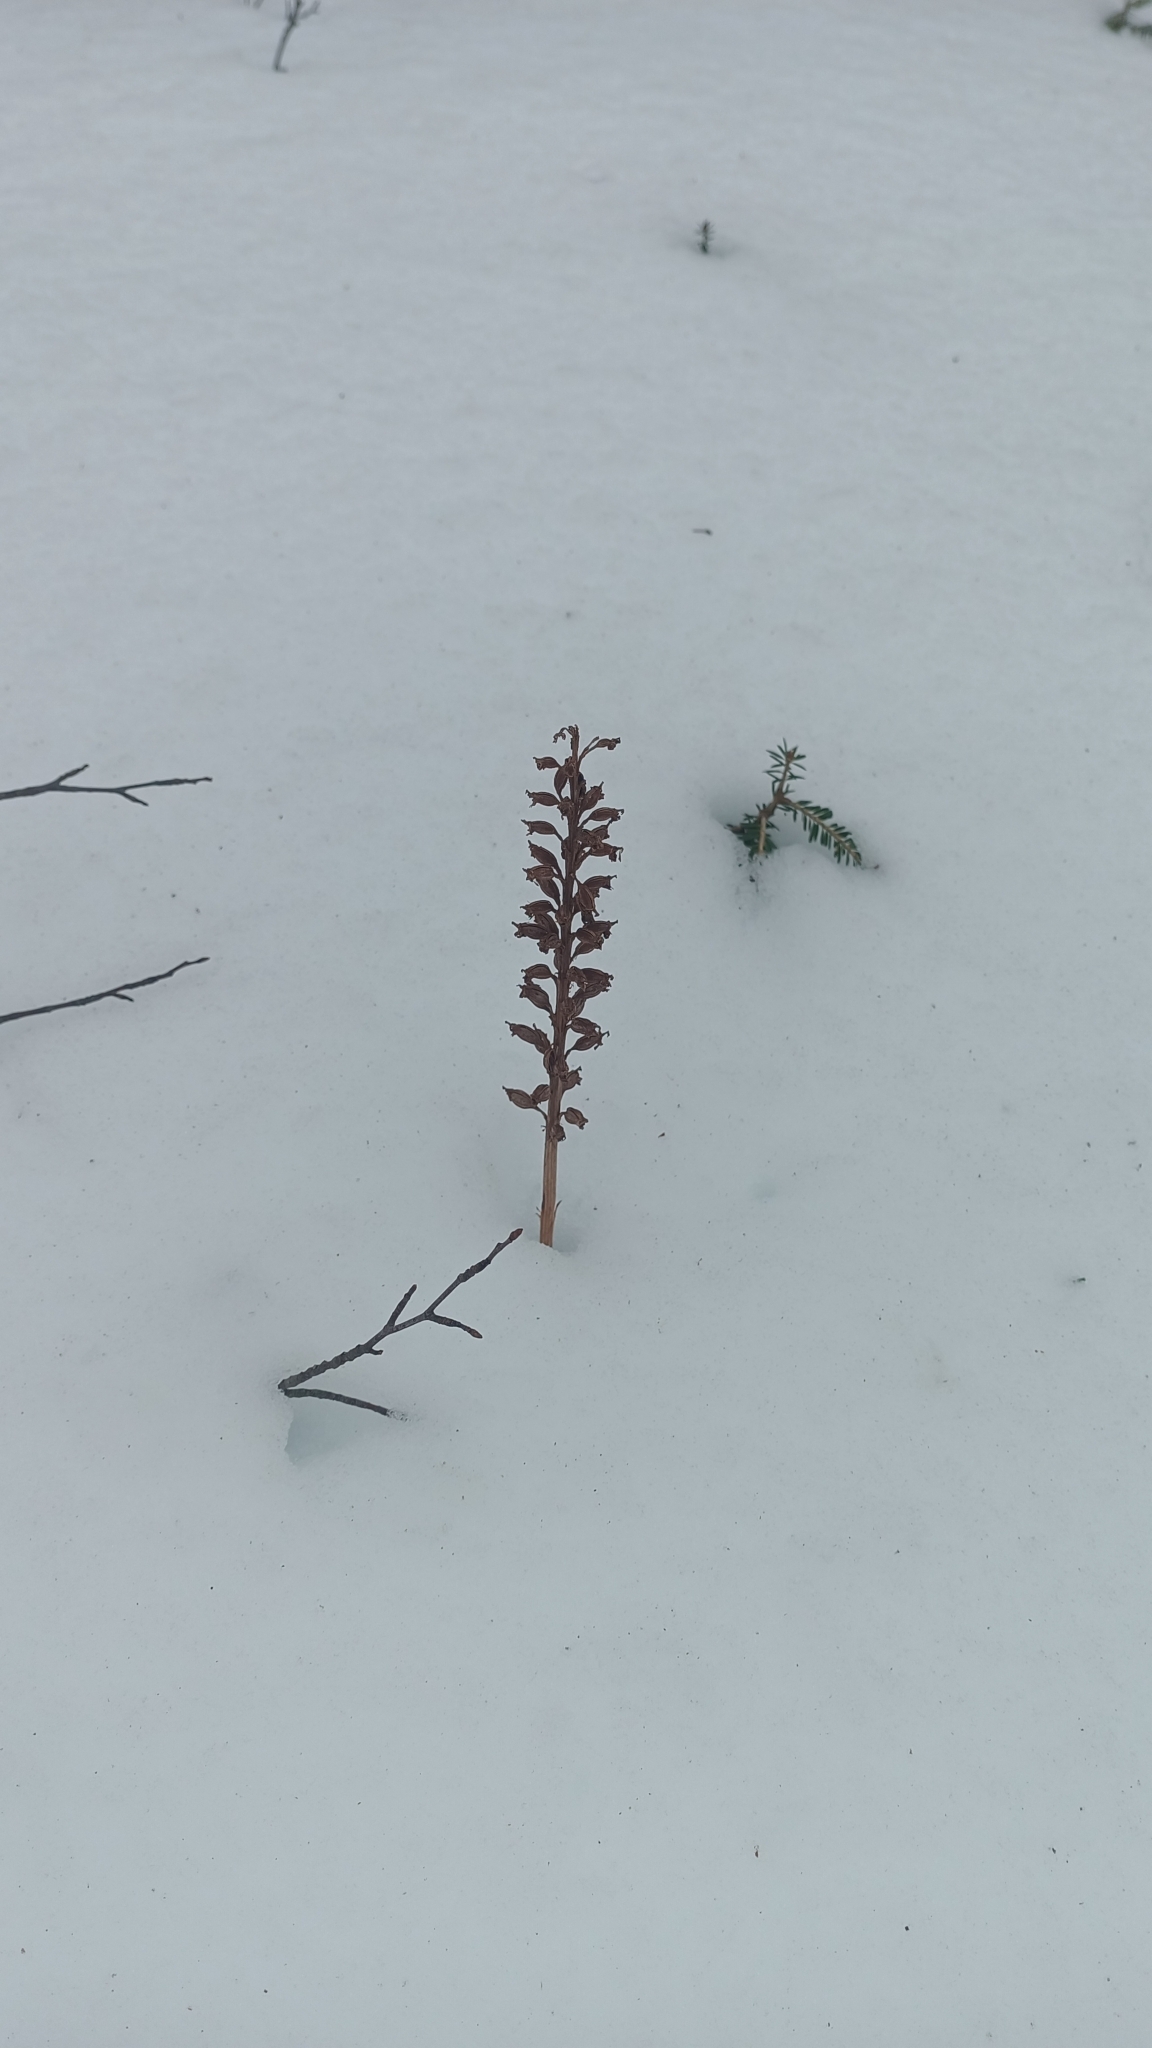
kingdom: Plantae
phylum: Tracheophyta
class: Liliopsida
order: Asparagales
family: Orchidaceae
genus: Neottia
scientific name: Neottia nidus-avis
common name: Bird's-nest orchid
